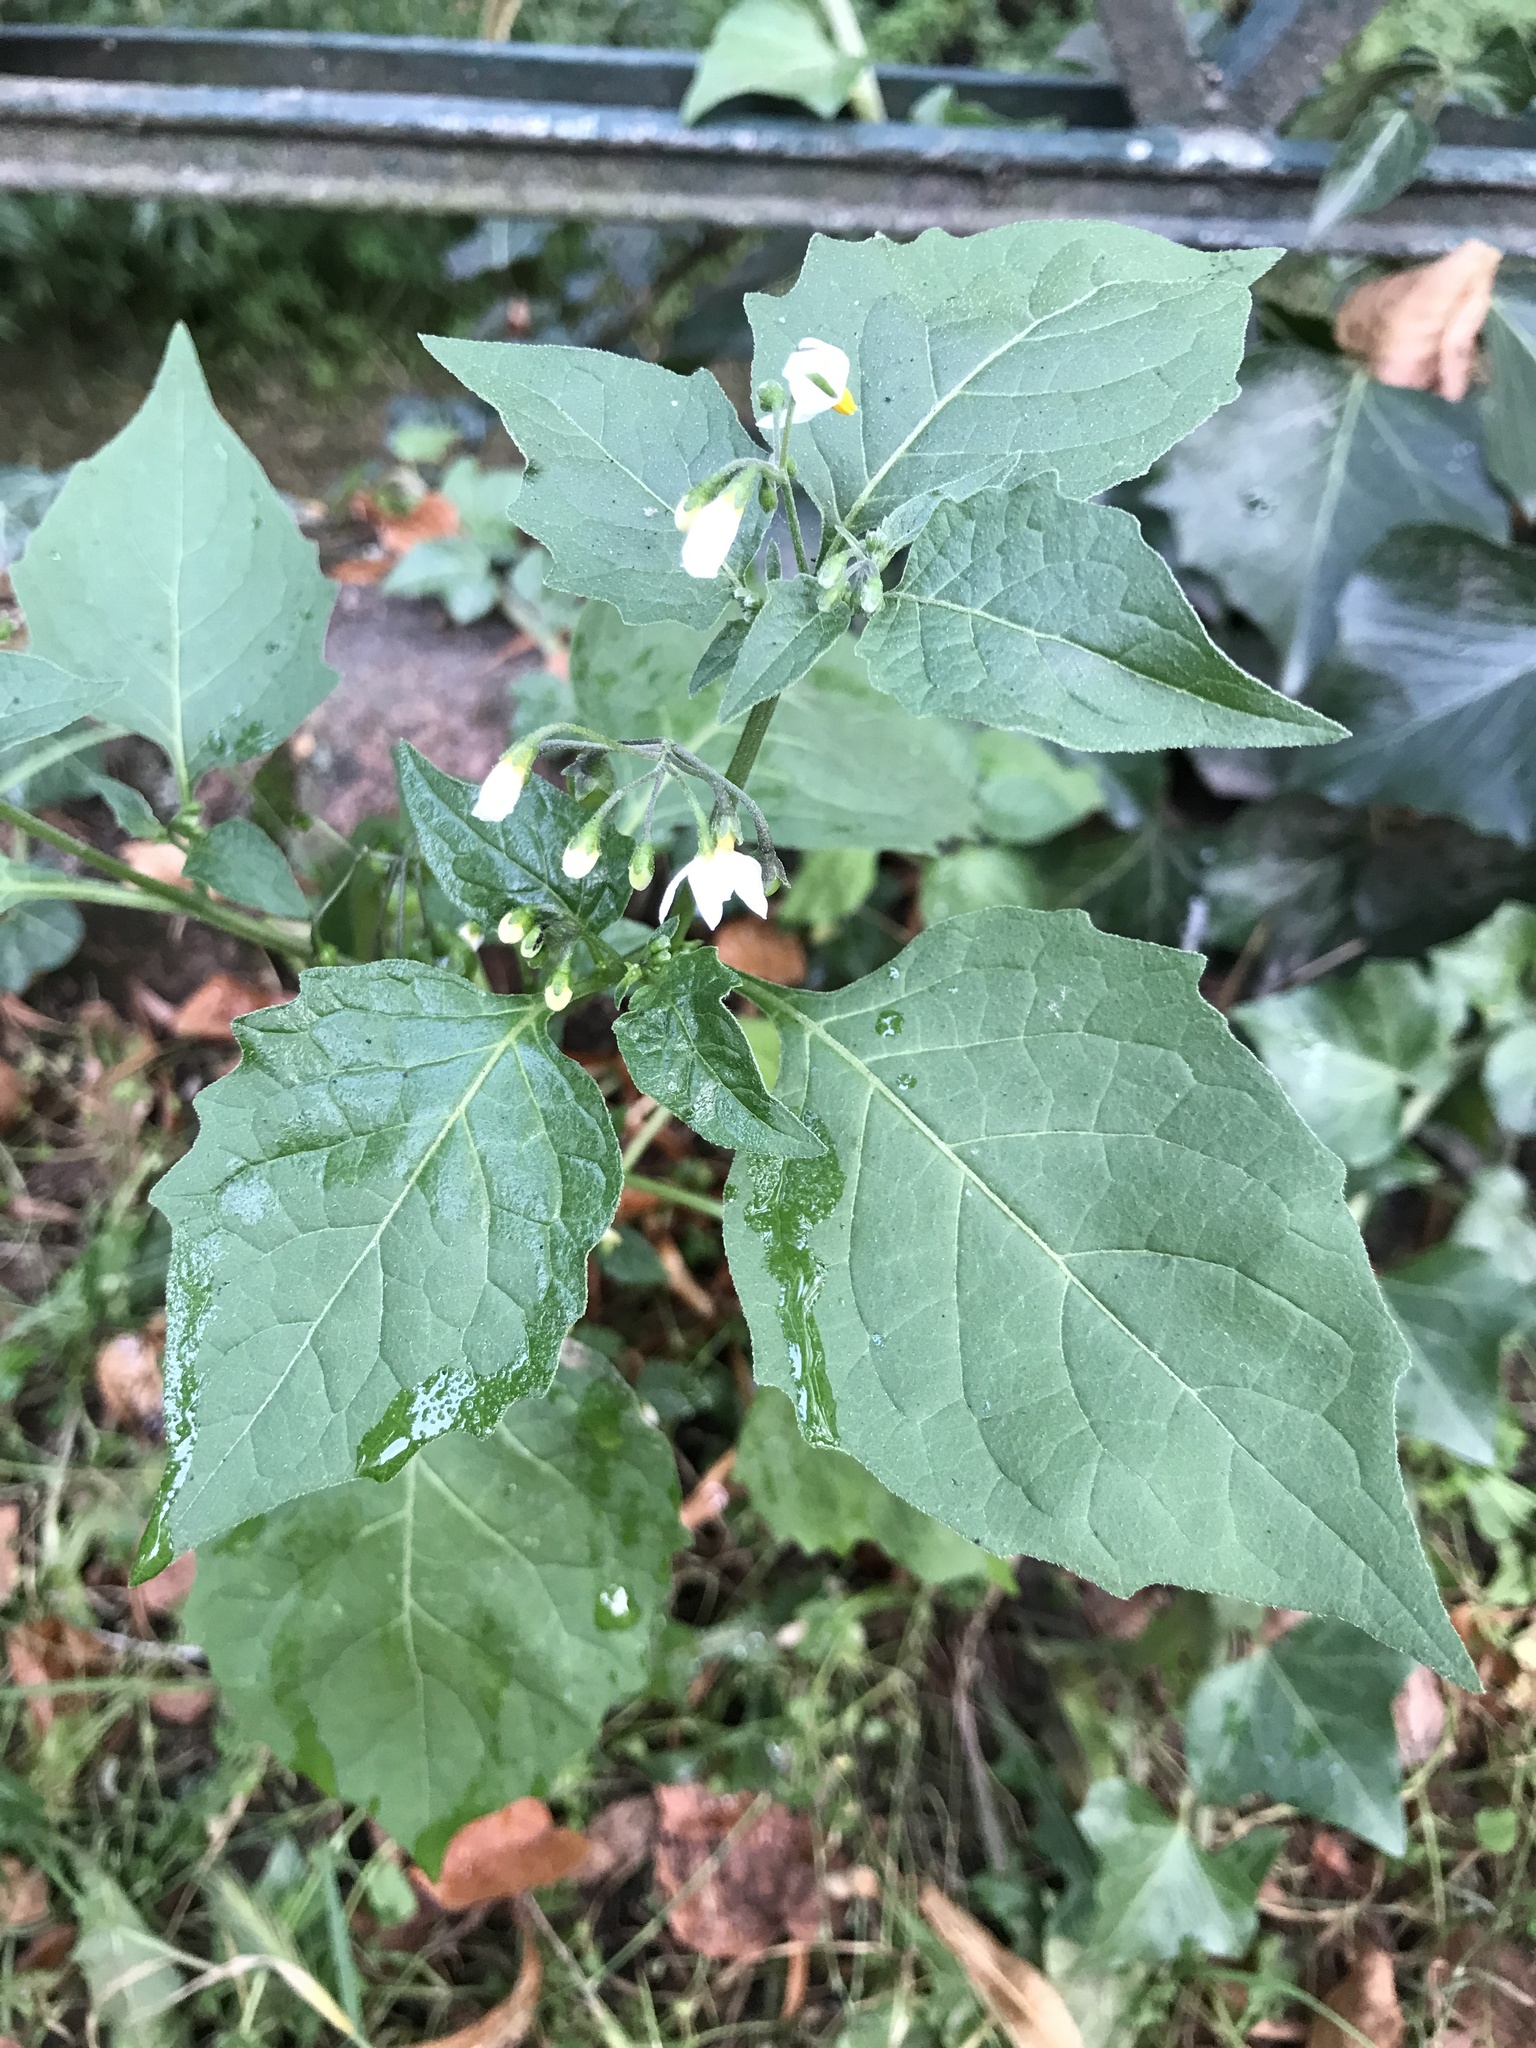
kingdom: Plantae
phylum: Tracheophyta
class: Magnoliopsida
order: Solanales
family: Solanaceae
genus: Solanum
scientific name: Solanum nigrum
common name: Black nightshade
